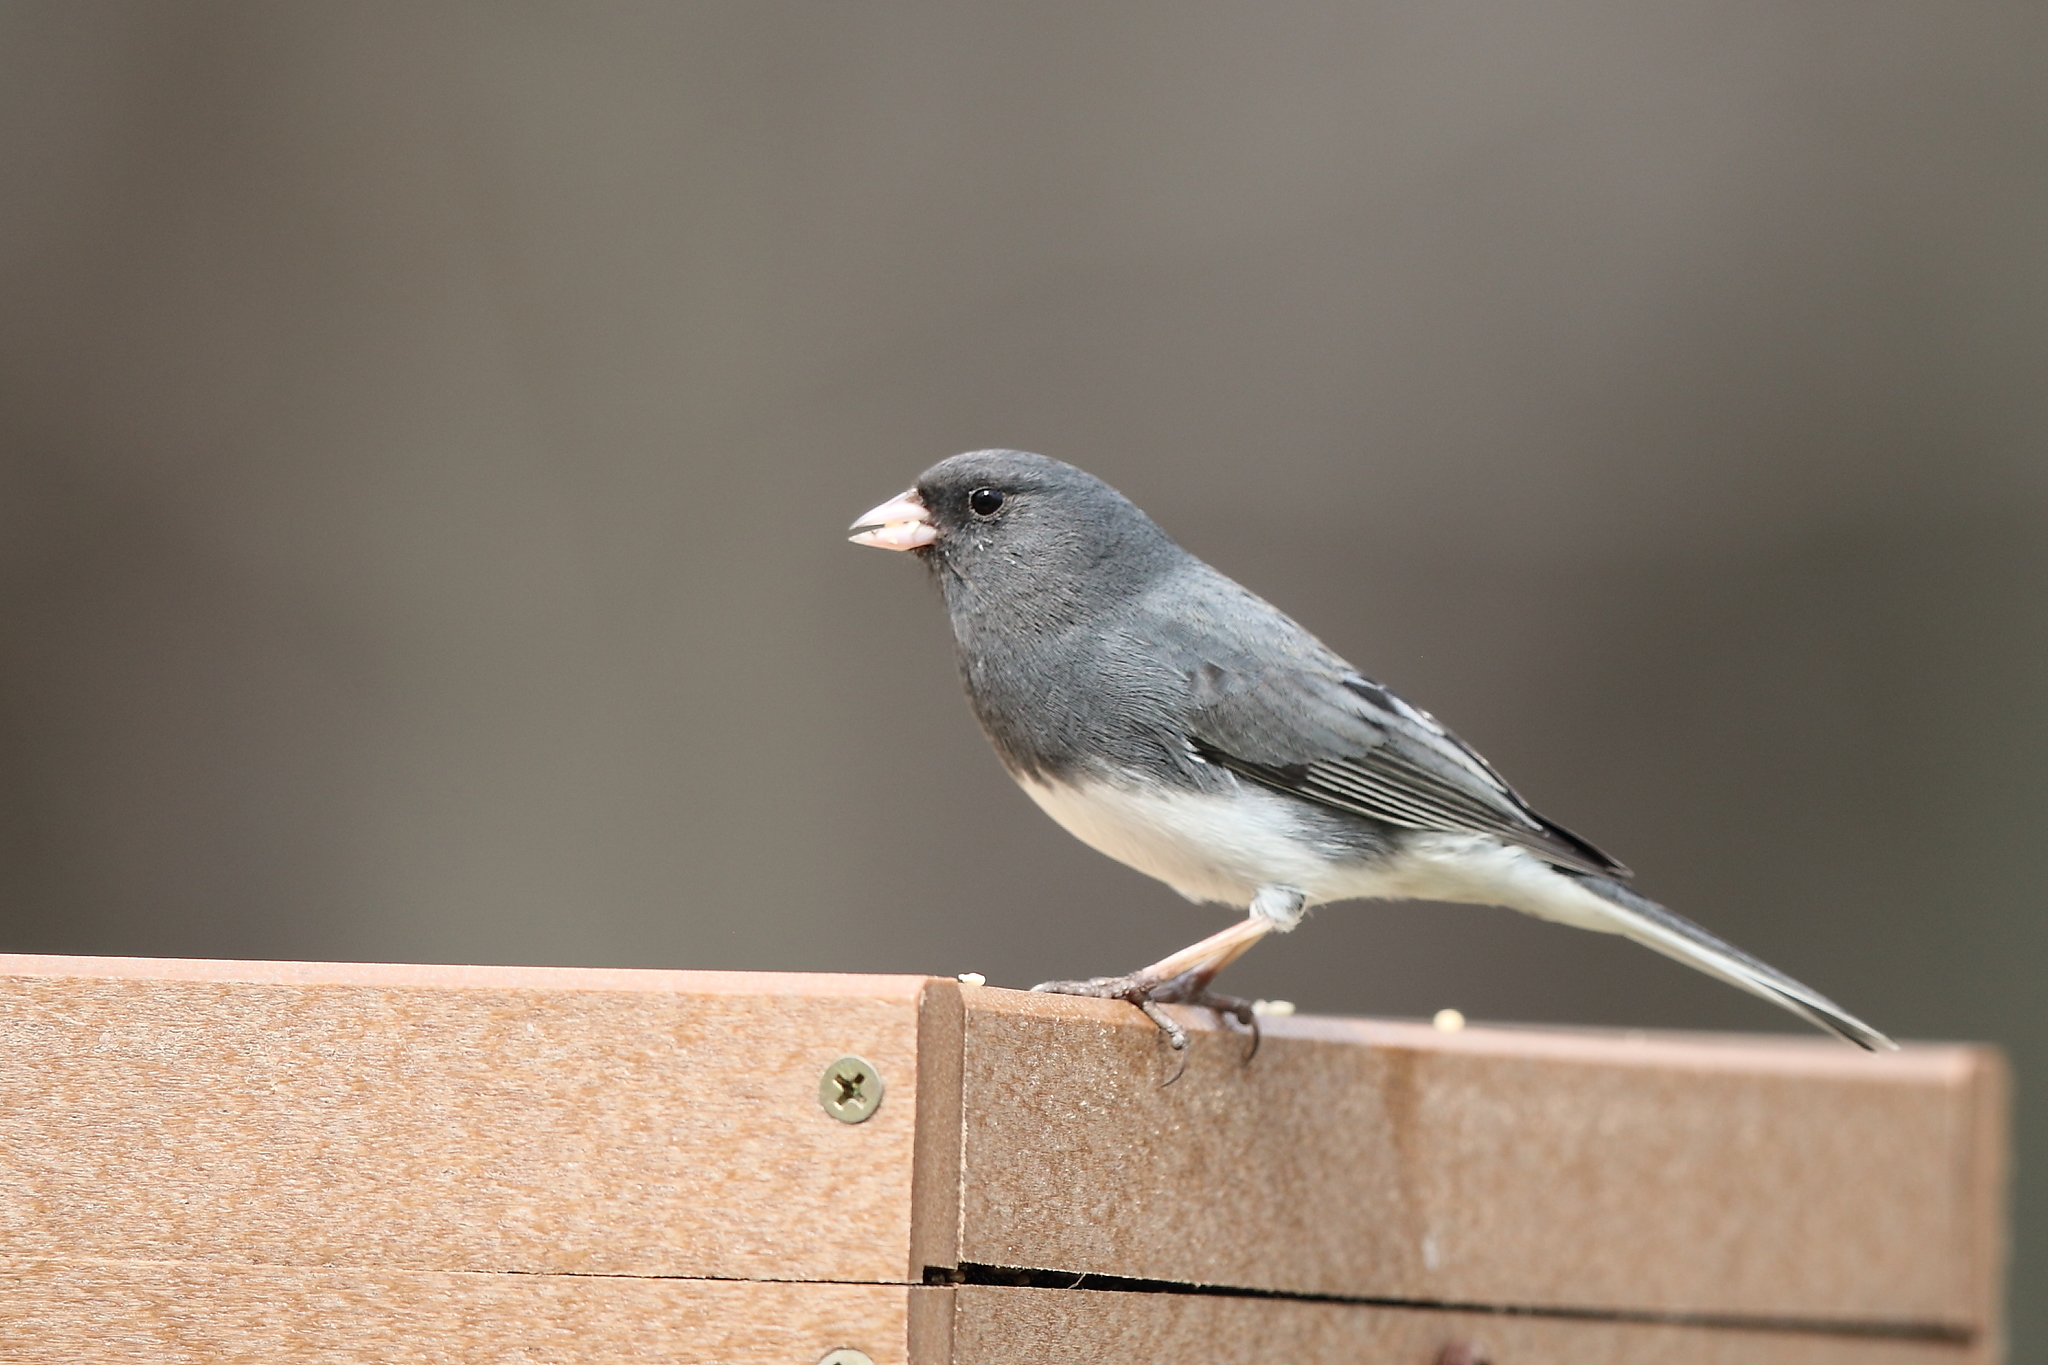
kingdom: Animalia
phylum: Chordata
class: Aves
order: Passeriformes
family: Passerellidae
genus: Junco
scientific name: Junco hyemalis
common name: Dark-eyed junco
